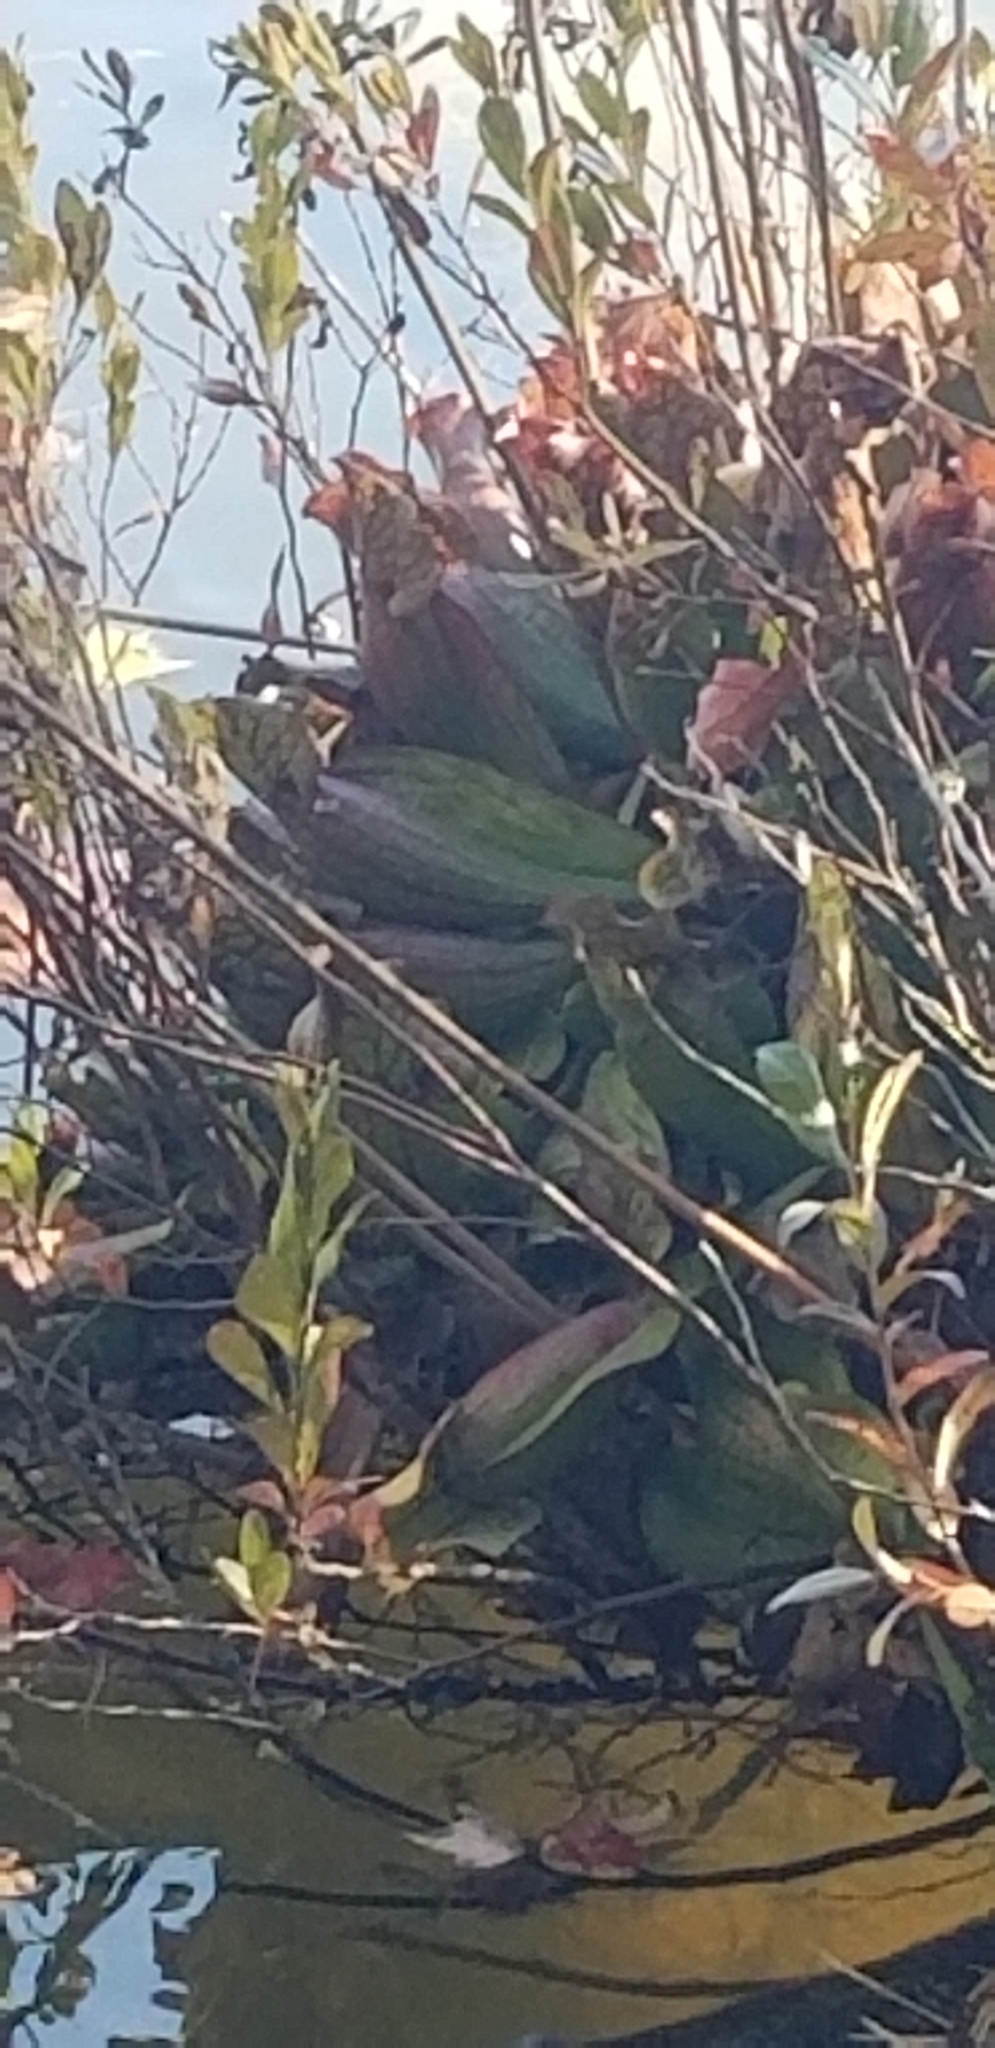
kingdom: Plantae
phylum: Tracheophyta
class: Magnoliopsida
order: Ericales
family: Sarraceniaceae
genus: Sarracenia
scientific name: Sarracenia purpurea
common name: Pitcherplant
